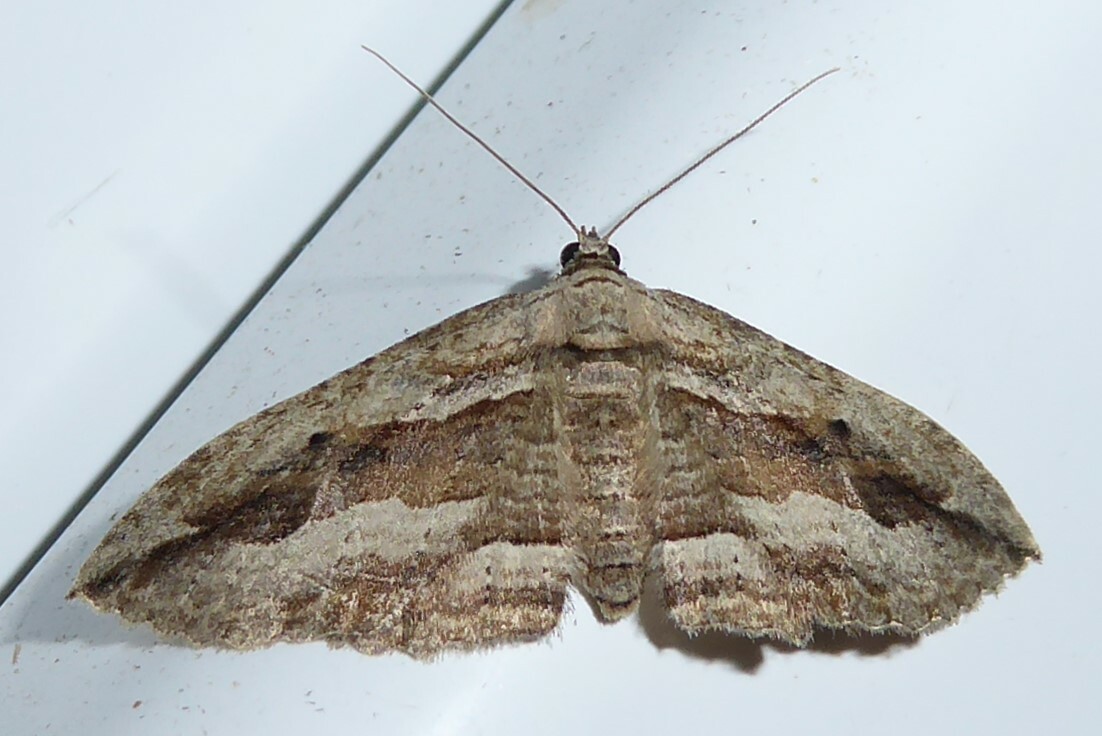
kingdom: Animalia
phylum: Arthropoda
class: Insecta
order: Lepidoptera
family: Geometridae
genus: Austrocidaria
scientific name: Austrocidaria gobiata
